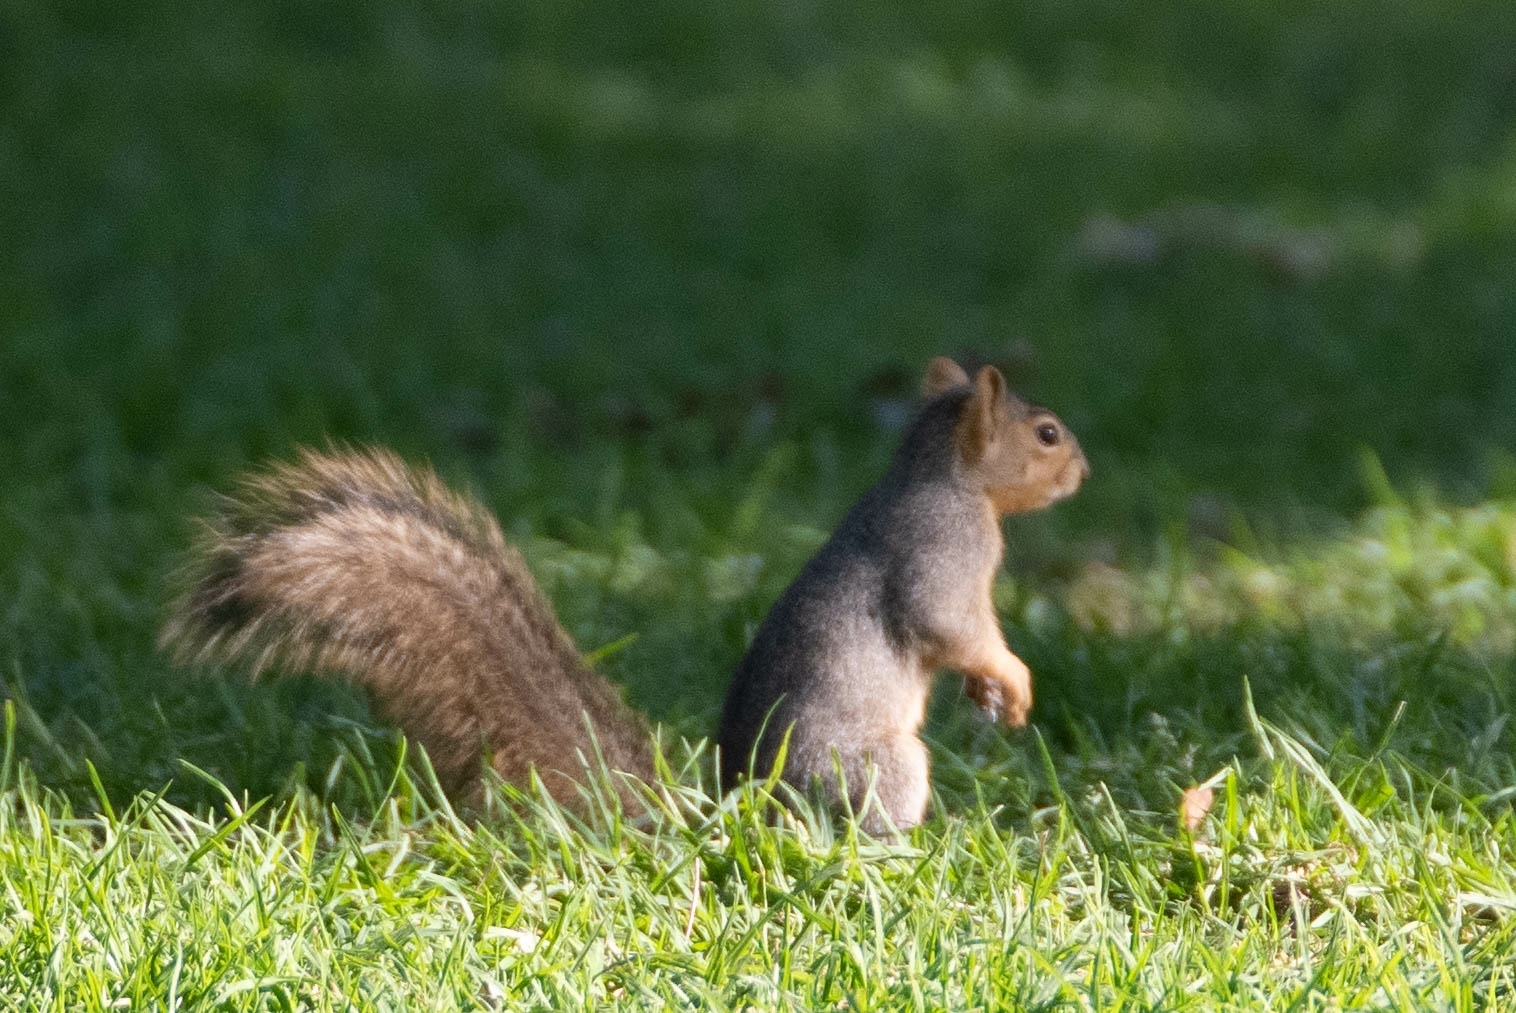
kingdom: Animalia
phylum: Chordata
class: Mammalia
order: Rodentia
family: Sciuridae
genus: Sciurus
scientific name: Sciurus niger
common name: Fox squirrel
